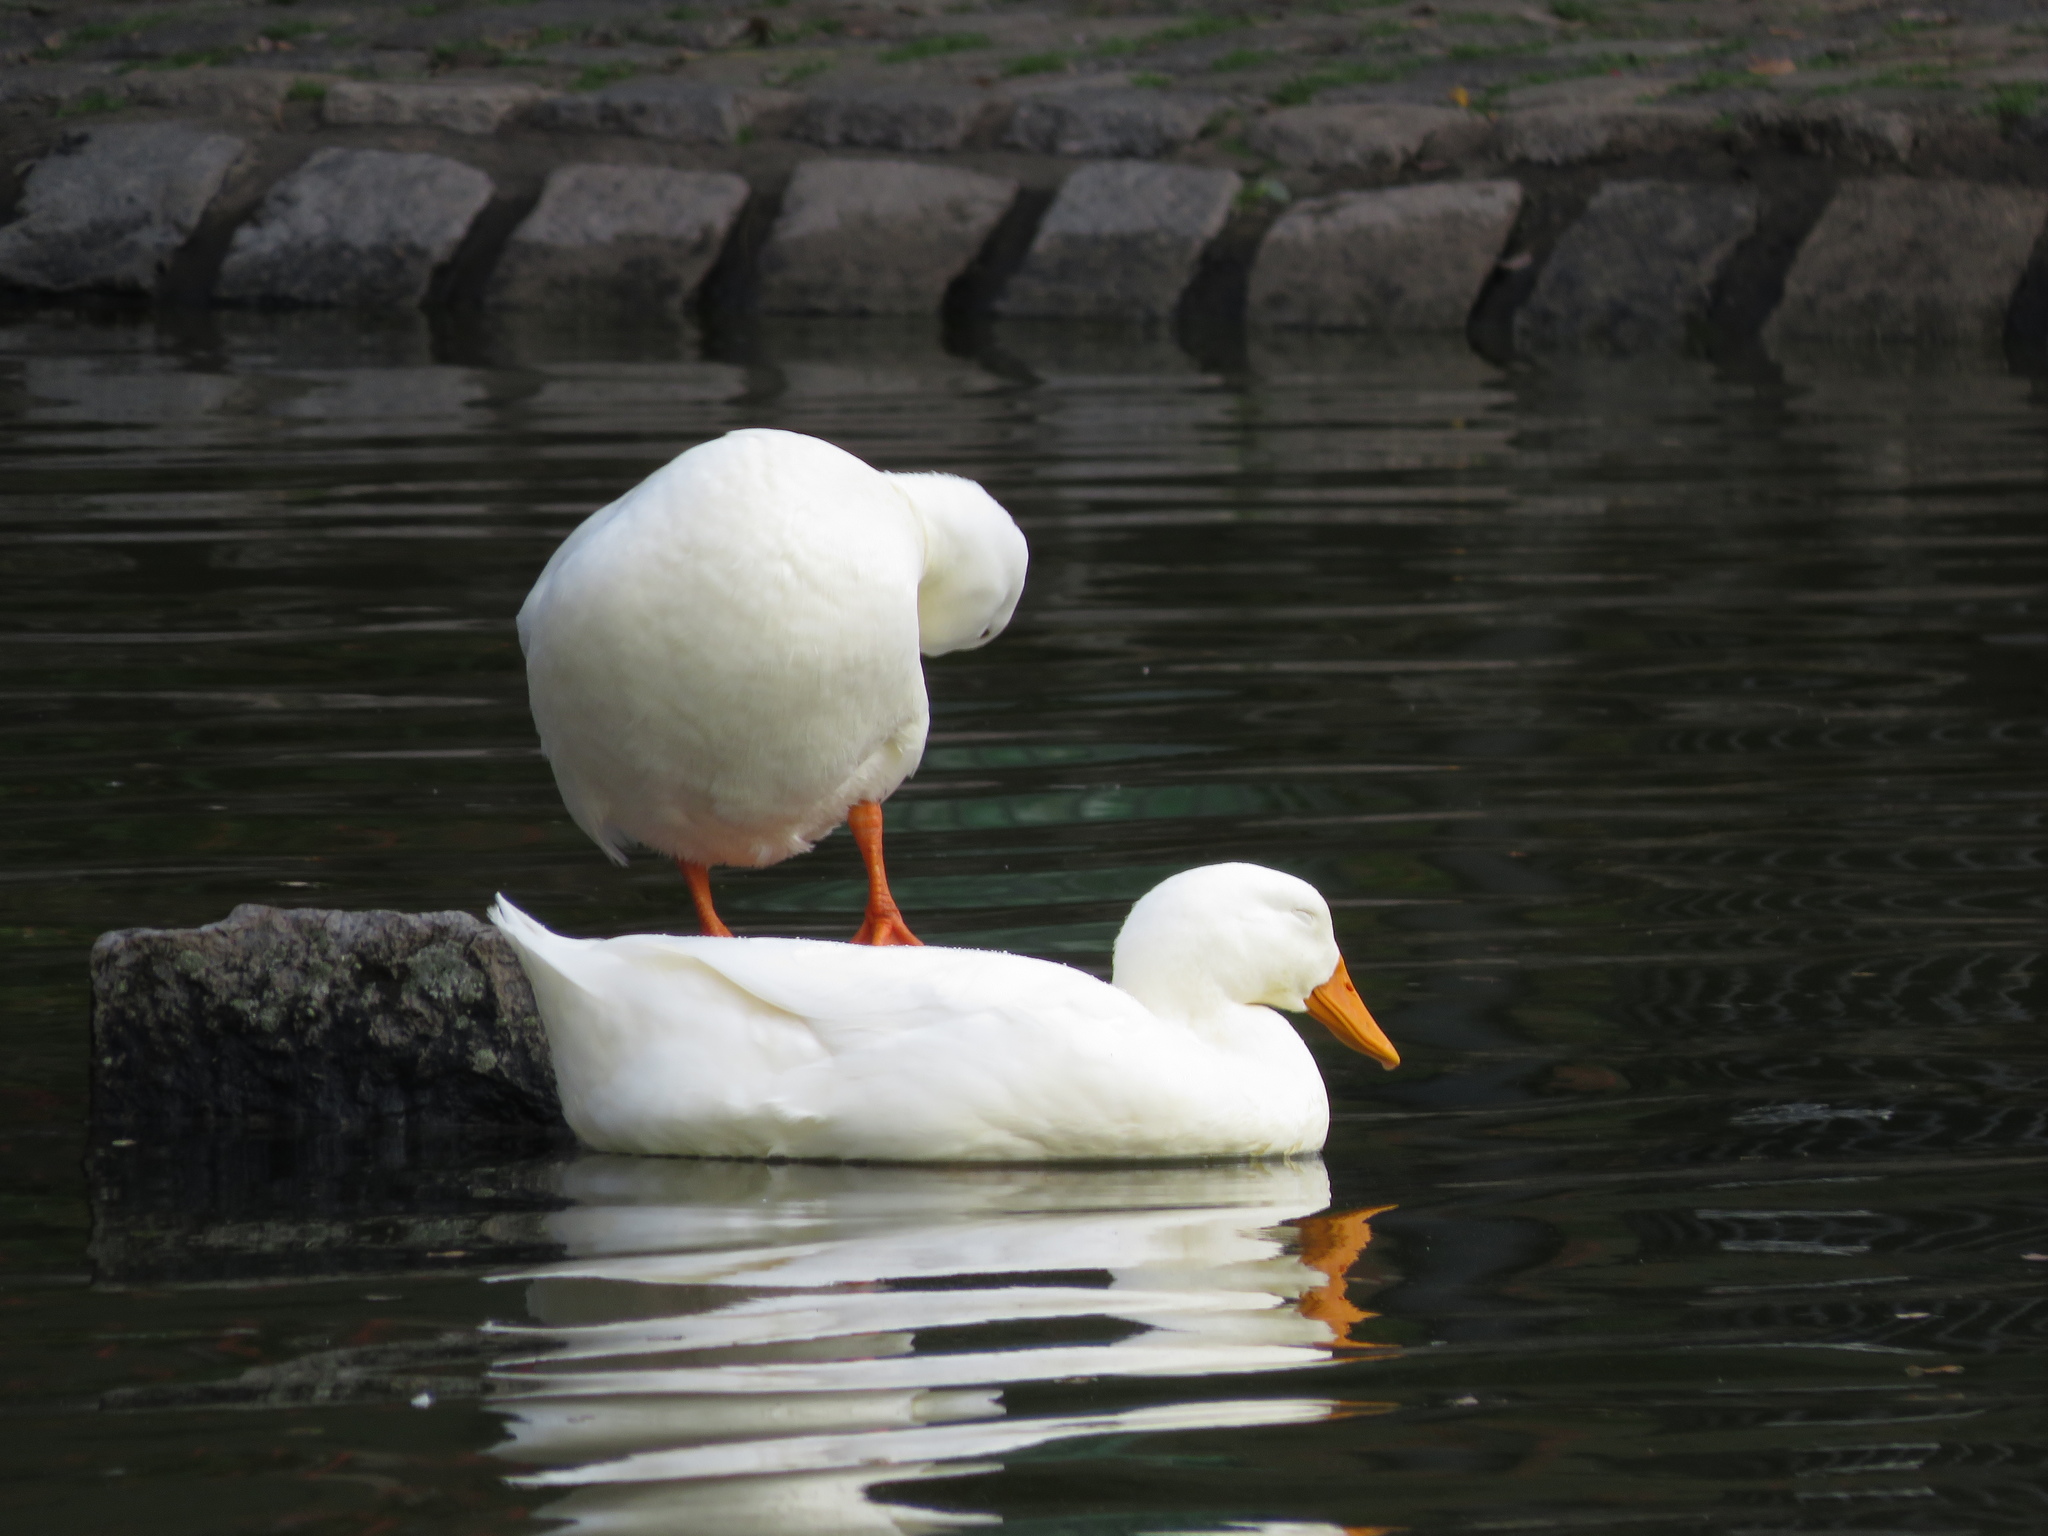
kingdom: Animalia
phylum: Chordata
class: Aves
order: Anseriformes
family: Anatidae
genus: Anas
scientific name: Anas platyrhynchos
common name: Mallard
